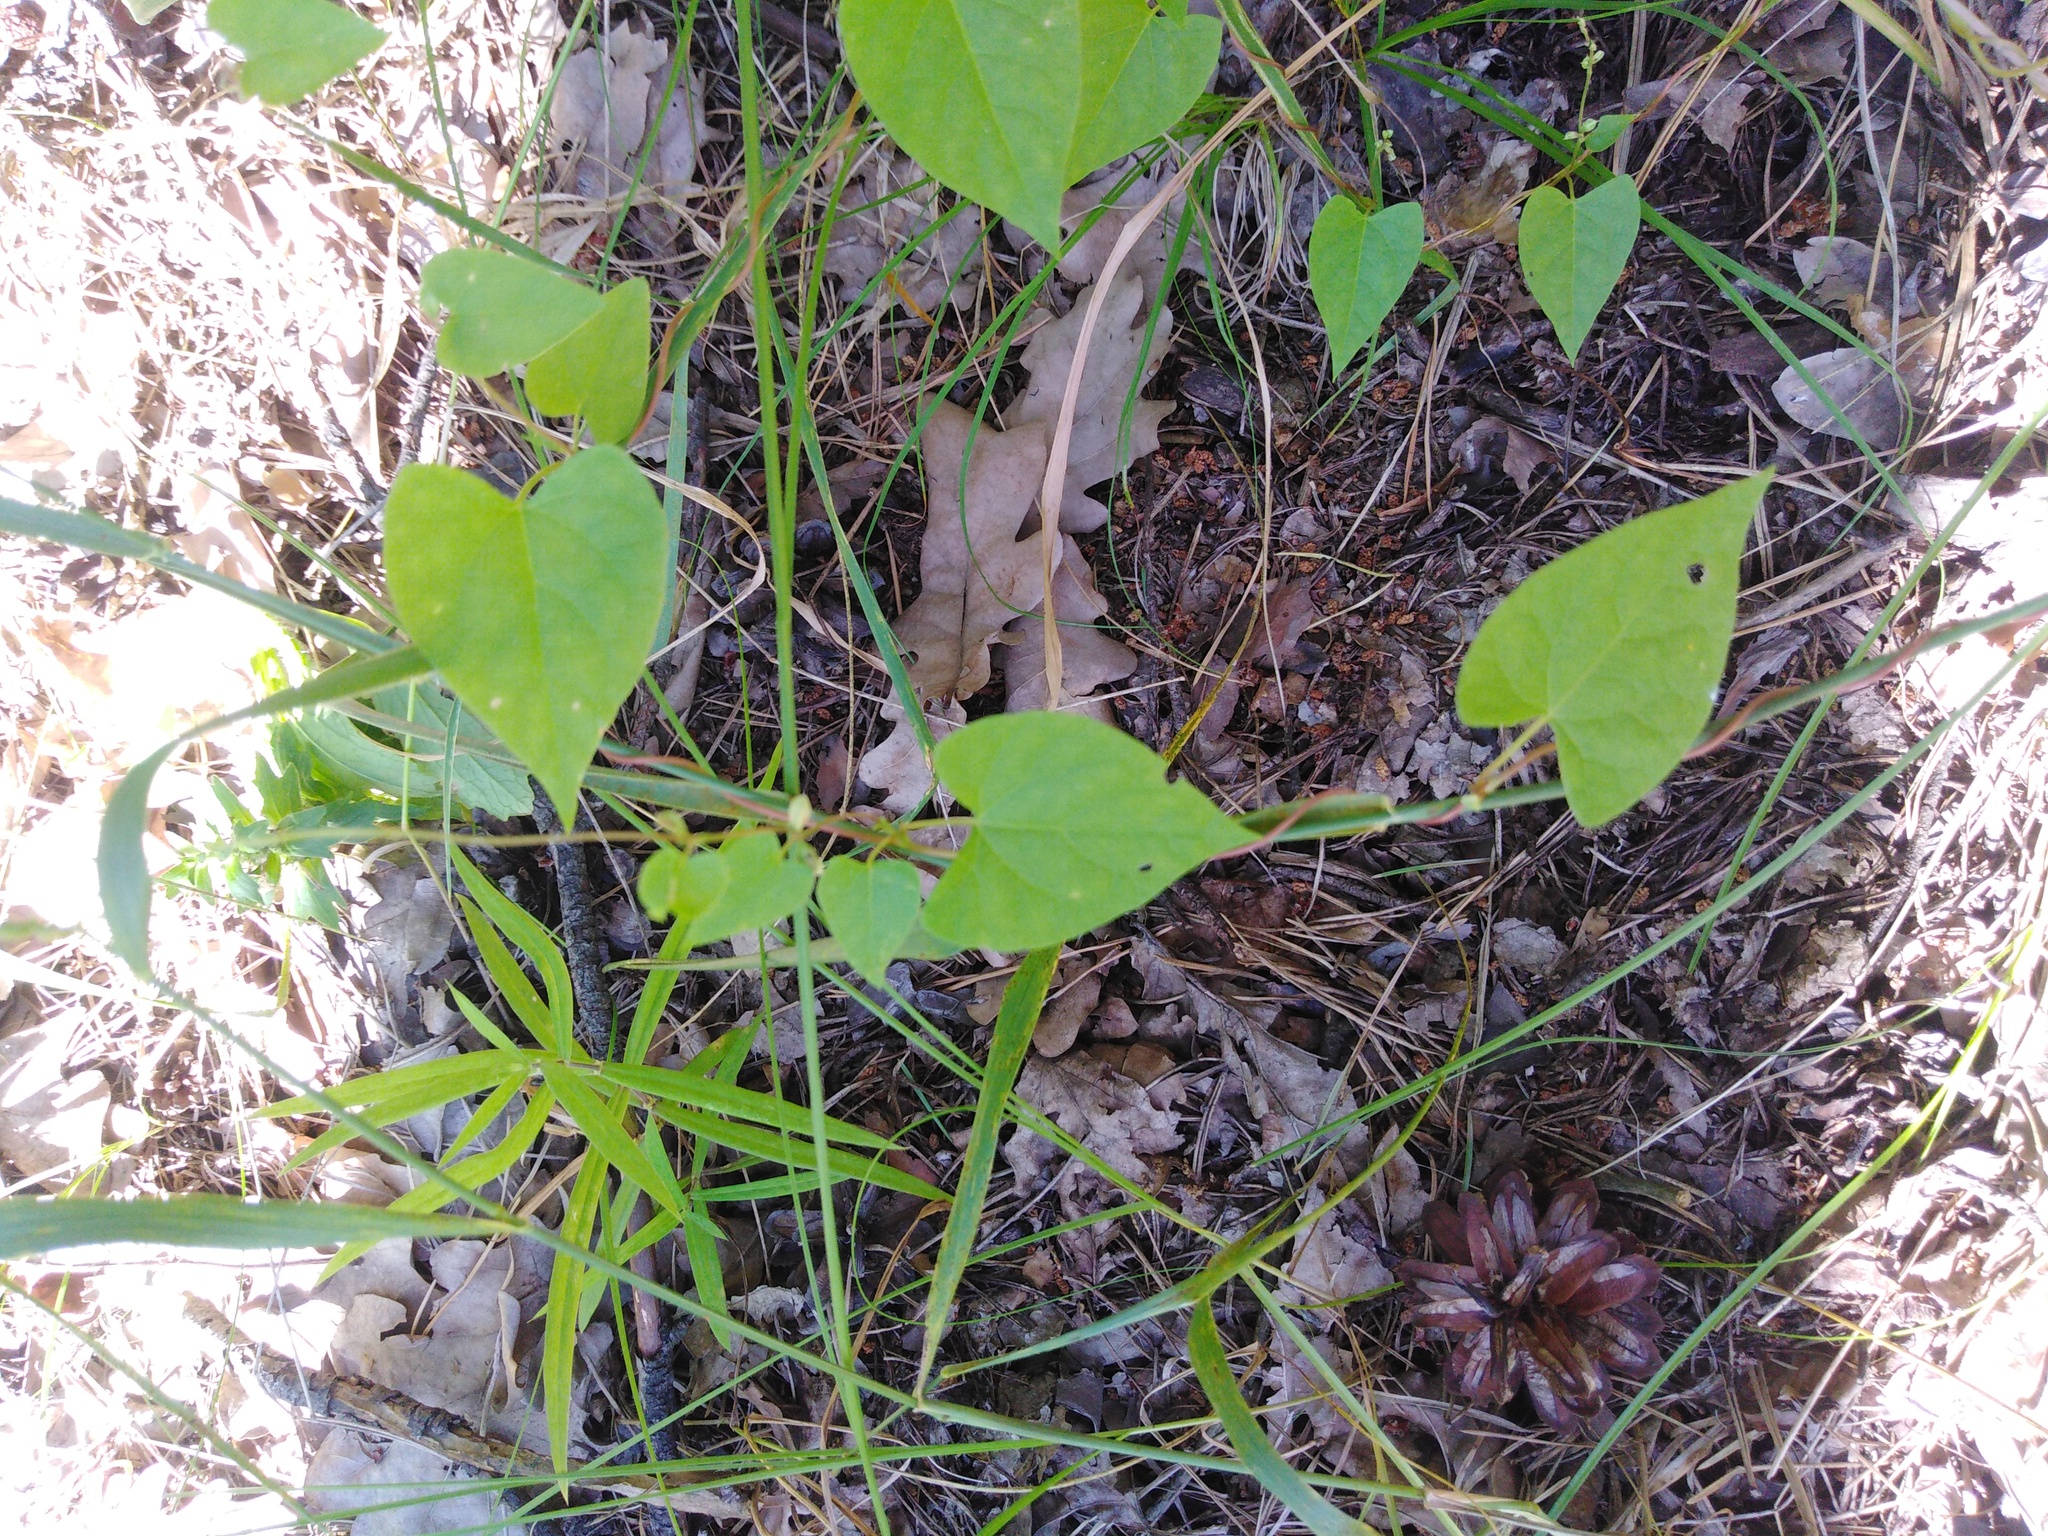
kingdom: Plantae
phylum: Tracheophyta
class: Magnoliopsida
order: Caryophyllales
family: Polygonaceae
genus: Fallopia
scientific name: Fallopia convolvulus
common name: Black bindweed
